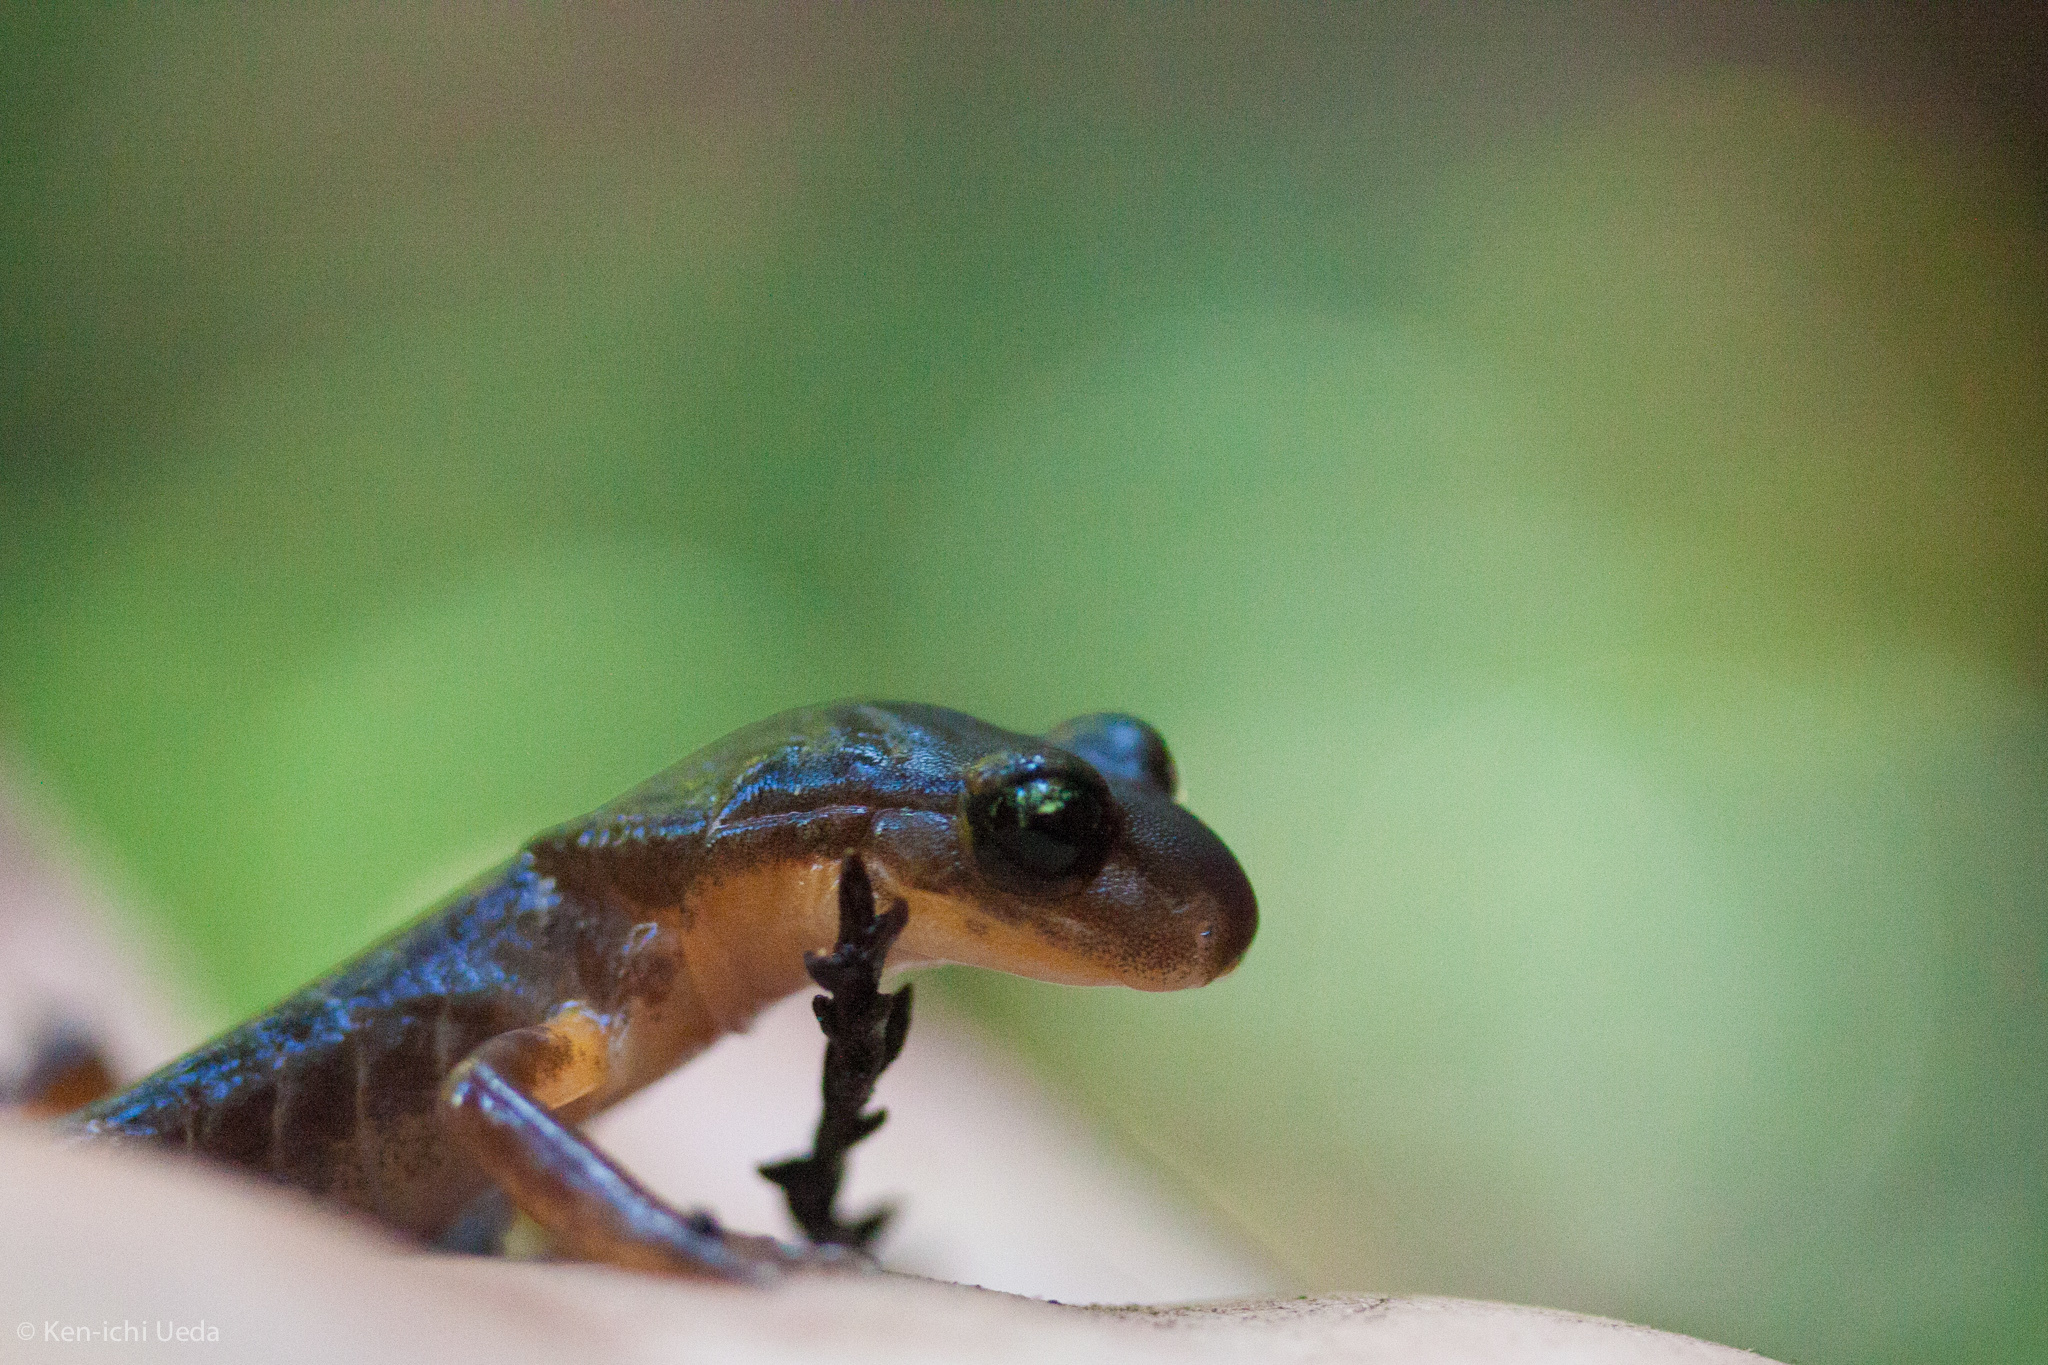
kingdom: Animalia
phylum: Chordata
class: Amphibia
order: Caudata
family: Plethodontidae
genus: Ensatina
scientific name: Ensatina eschscholtzii
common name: Ensatina
